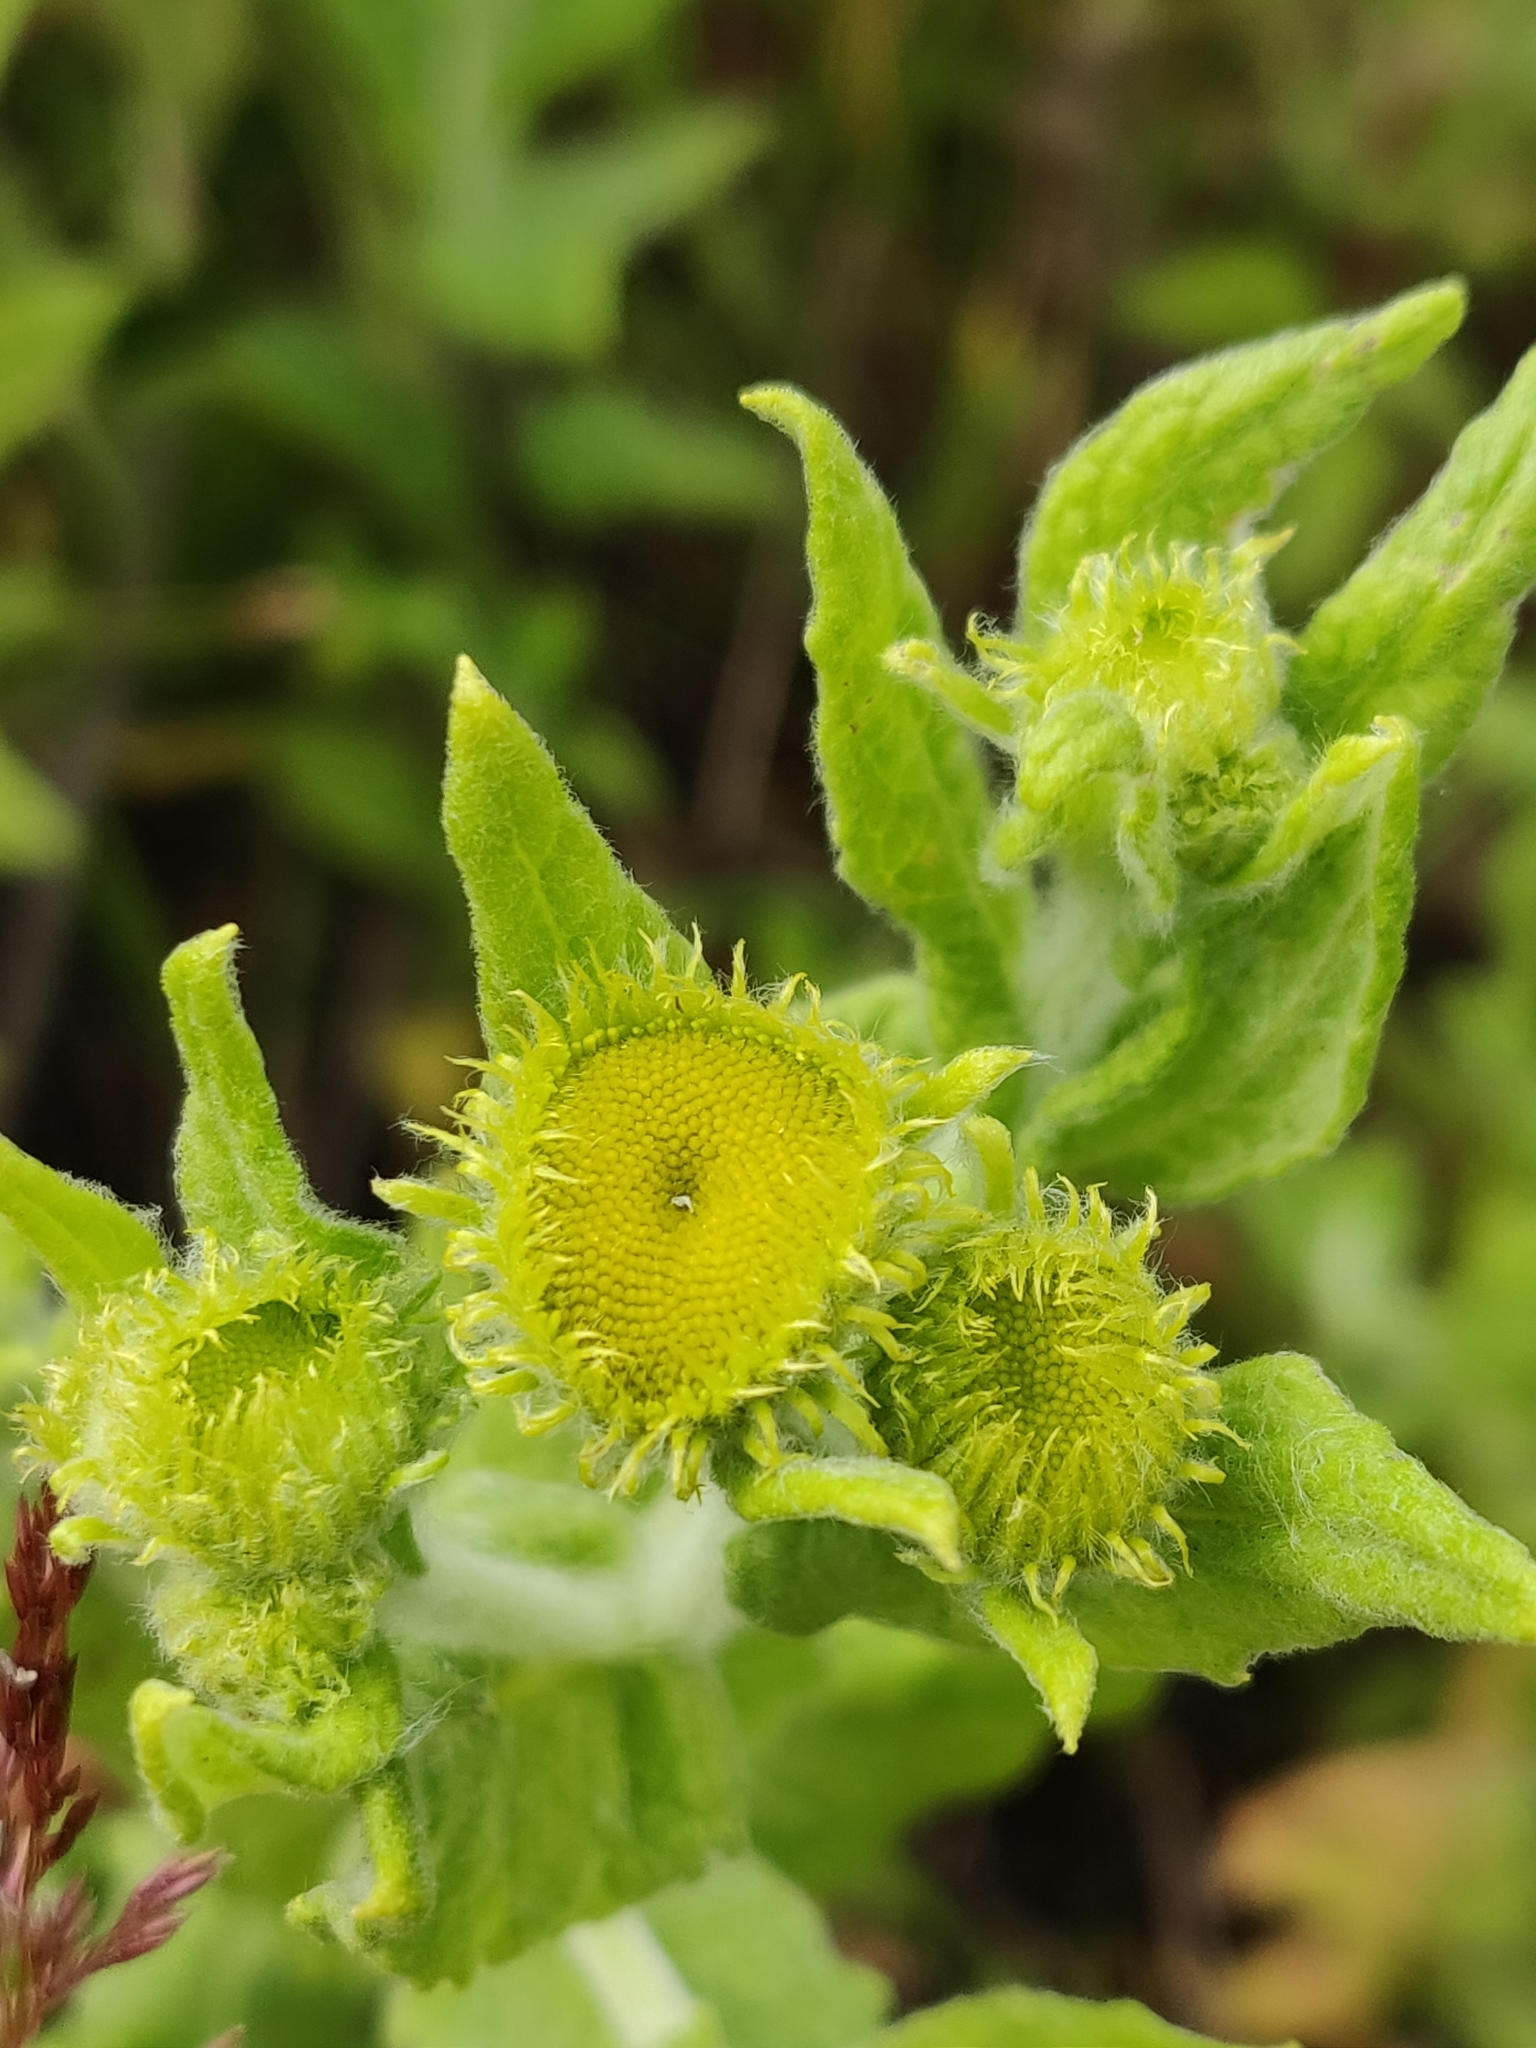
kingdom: Plantae
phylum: Tracheophyta
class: Magnoliopsida
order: Asterales
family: Asteraceae
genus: Pulicaria
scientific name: Pulicaria dysenterica
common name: Common fleabane
